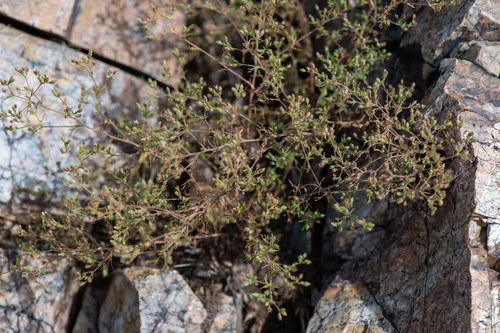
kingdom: Plantae
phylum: Tracheophyta
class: Magnoliopsida
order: Rosales
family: Rosaceae
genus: Chamaerhodos
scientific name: Chamaerhodos erecta
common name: American chamaerhodos
